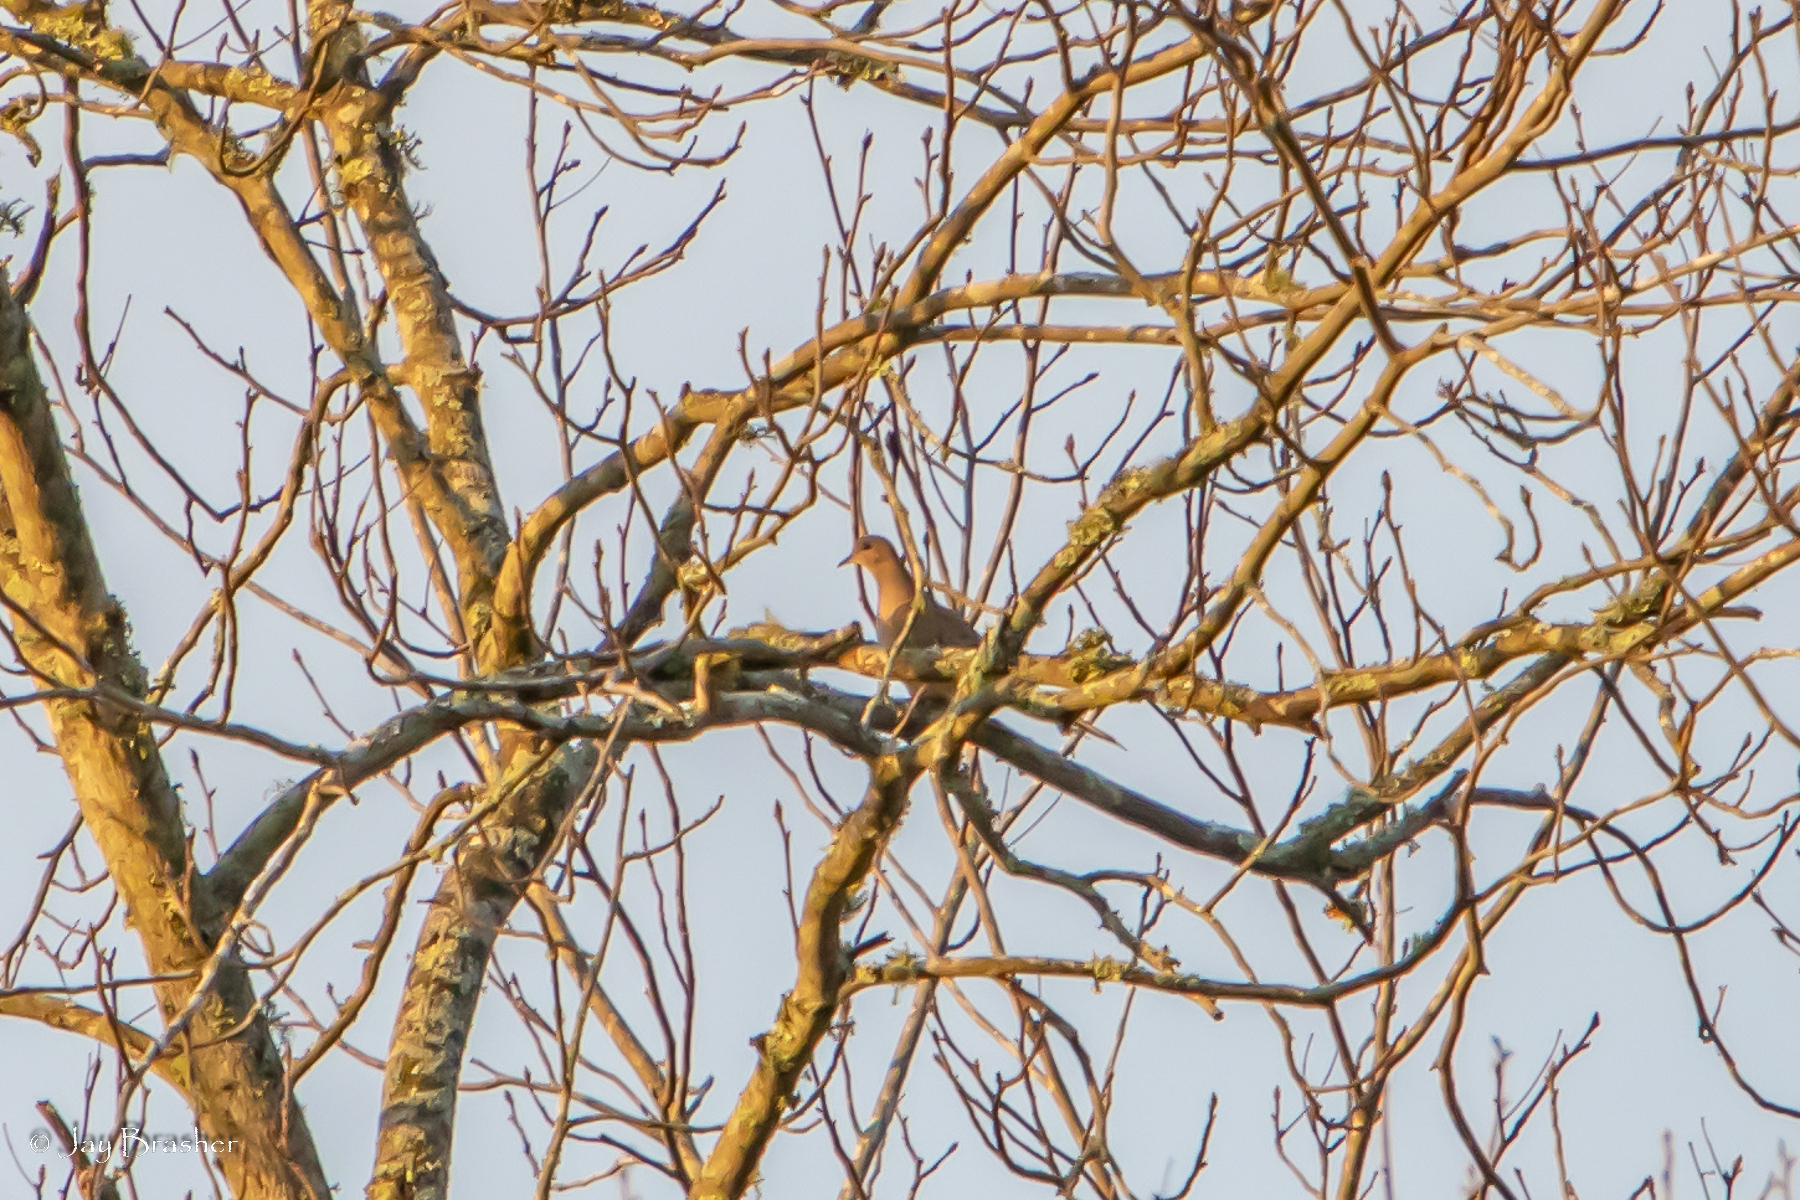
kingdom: Animalia
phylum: Chordata
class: Aves
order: Columbiformes
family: Columbidae
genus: Zenaida
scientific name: Zenaida macroura
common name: Mourning dove
